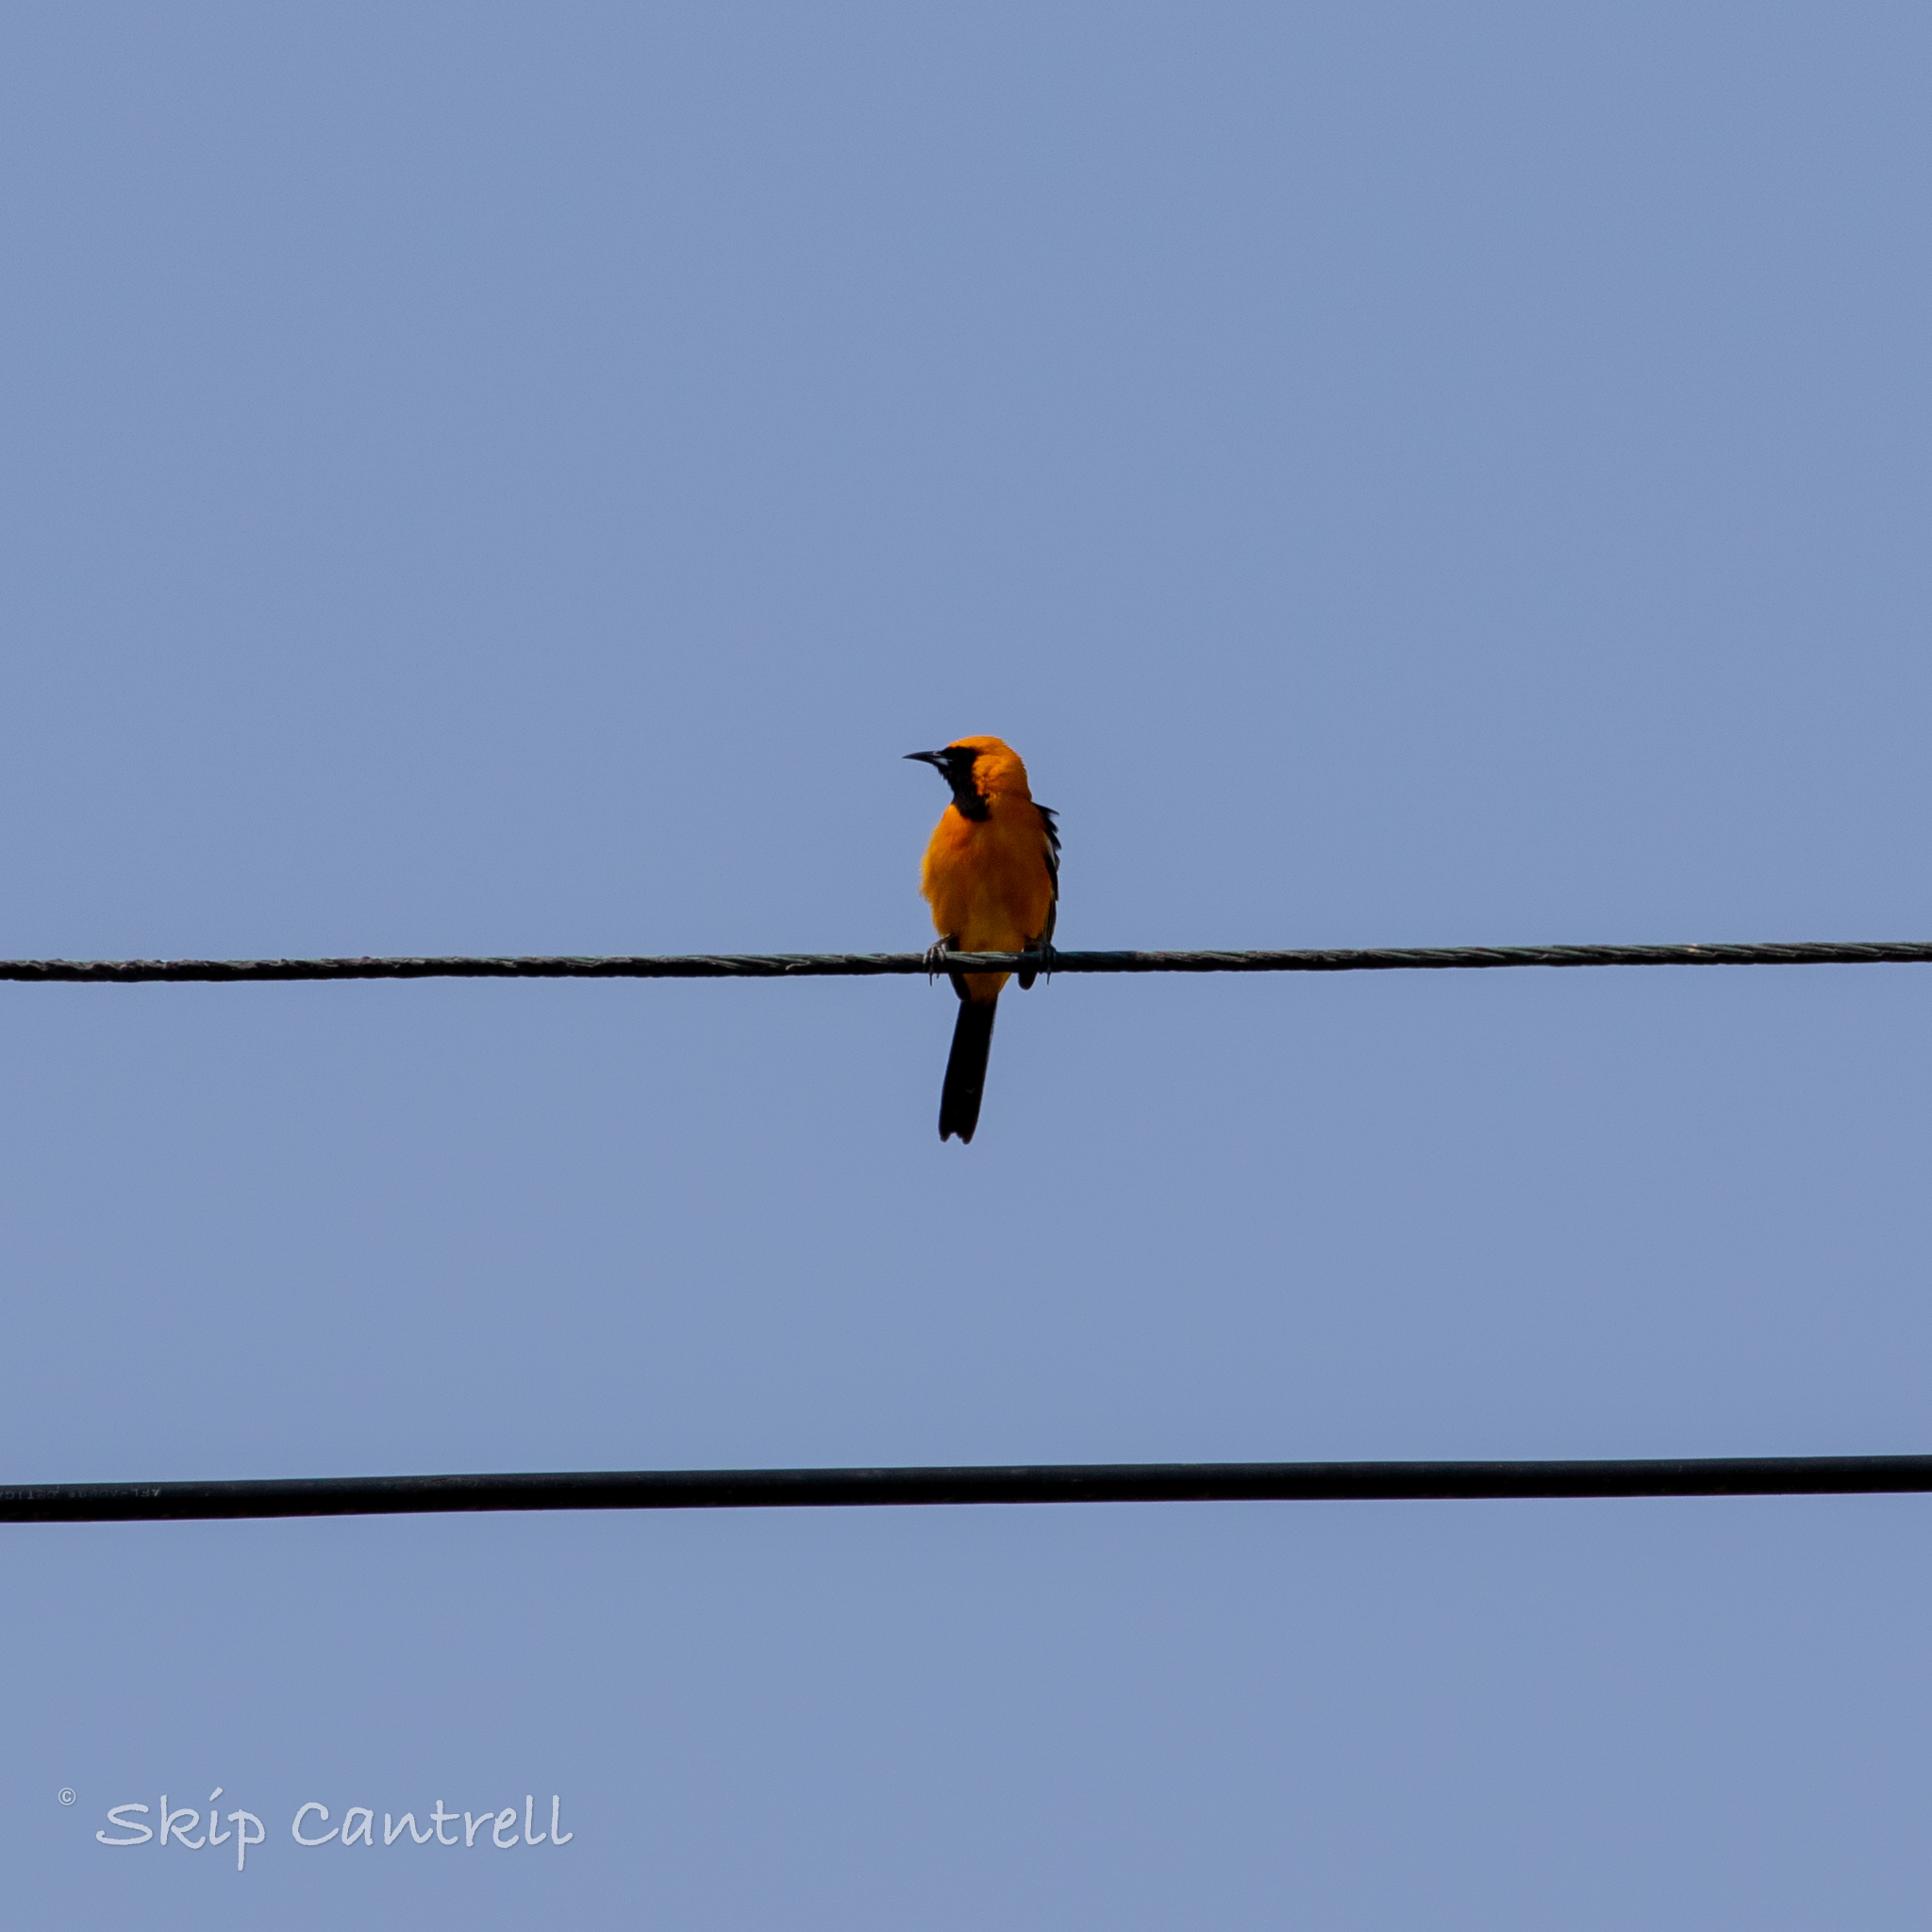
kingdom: Animalia
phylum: Chordata
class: Aves
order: Passeriformes
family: Icteridae
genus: Icterus
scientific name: Icterus cucullatus
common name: Hooded oriole
